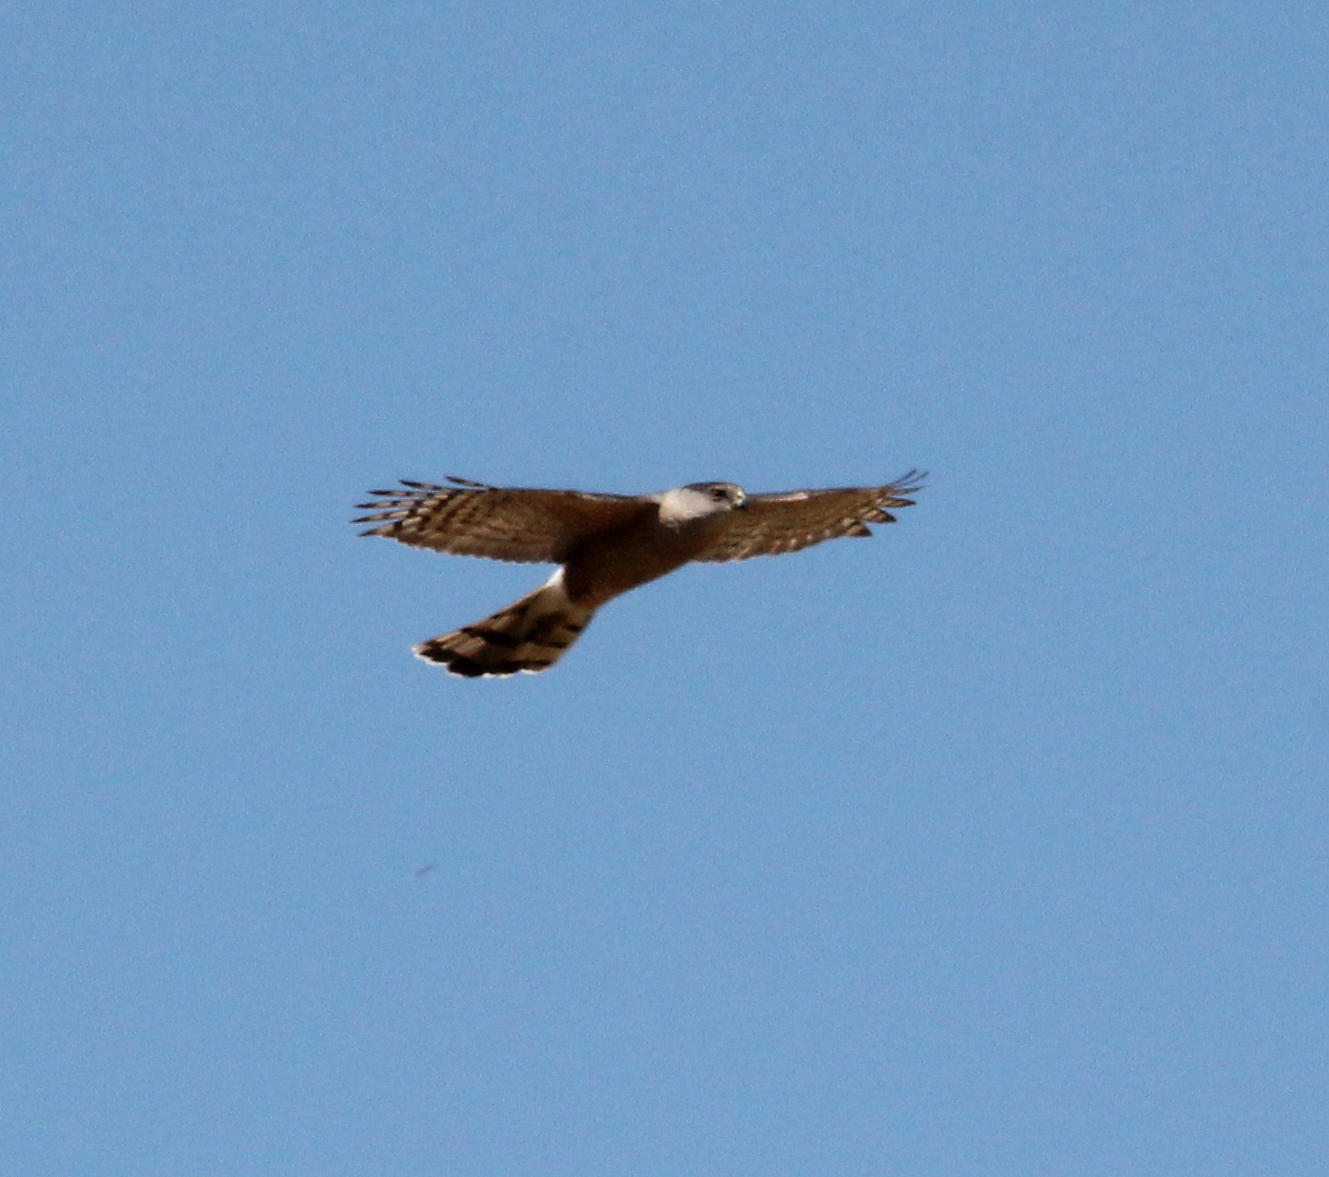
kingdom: Animalia
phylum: Chordata
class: Aves
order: Accipitriformes
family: Accipitridae
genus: Accipiter
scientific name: Accipiter cooperii
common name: Cooper's hawk
